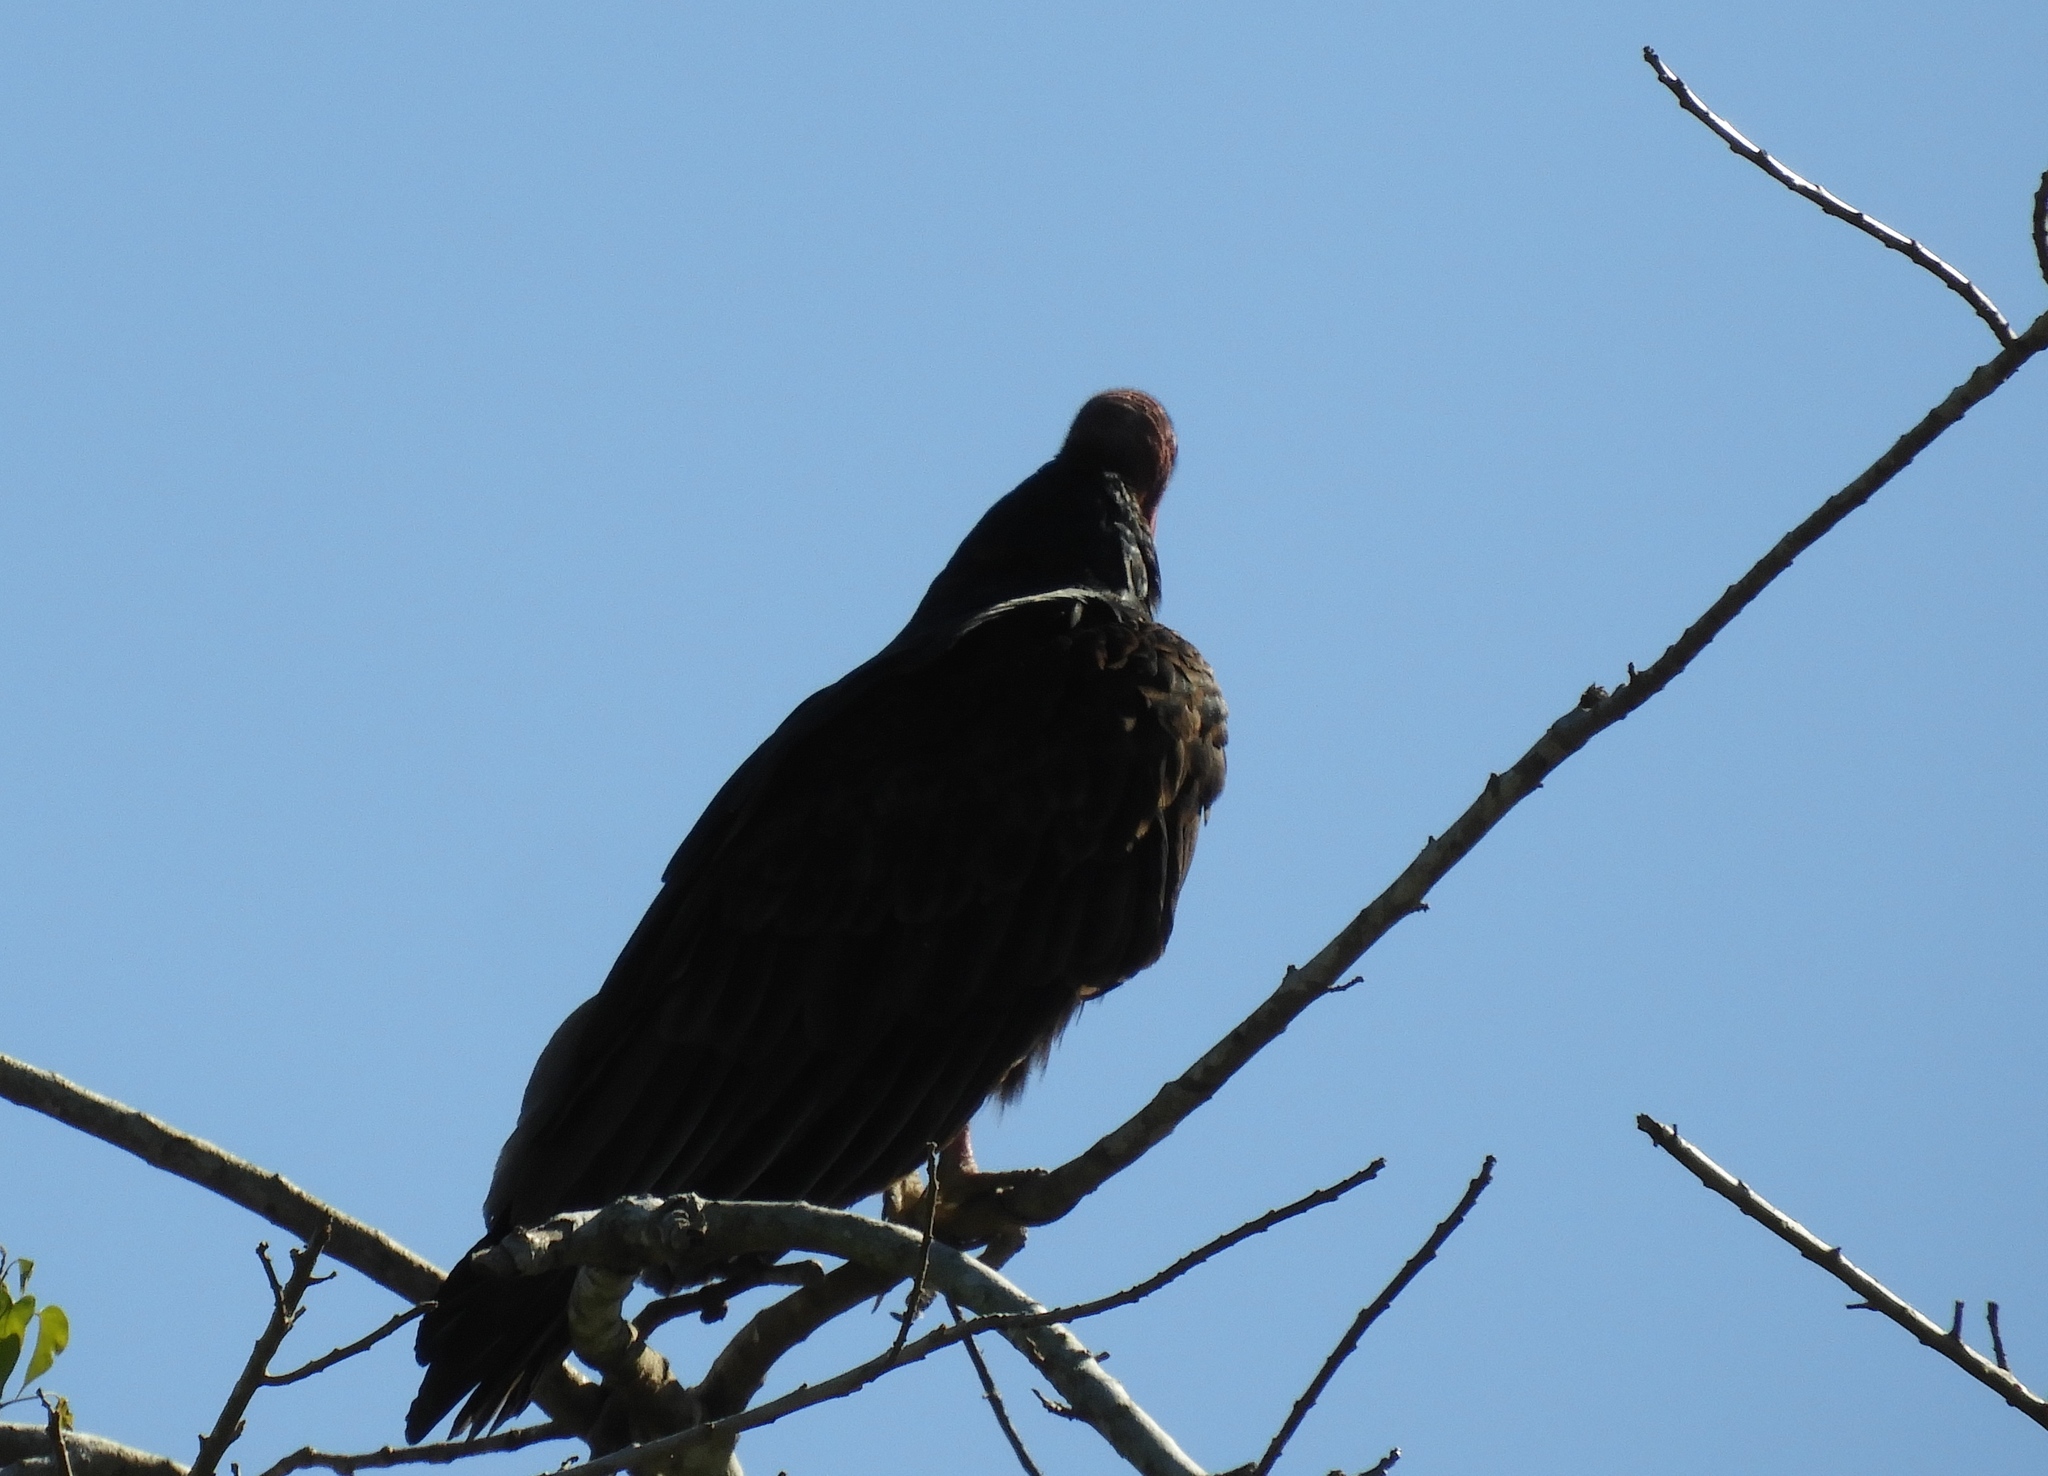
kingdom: Animalia
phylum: Chordata
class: Aves
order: Accipitriformes
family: Cathartidae
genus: Cathartes
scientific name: Cathartes aura
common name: Turkey vulture
